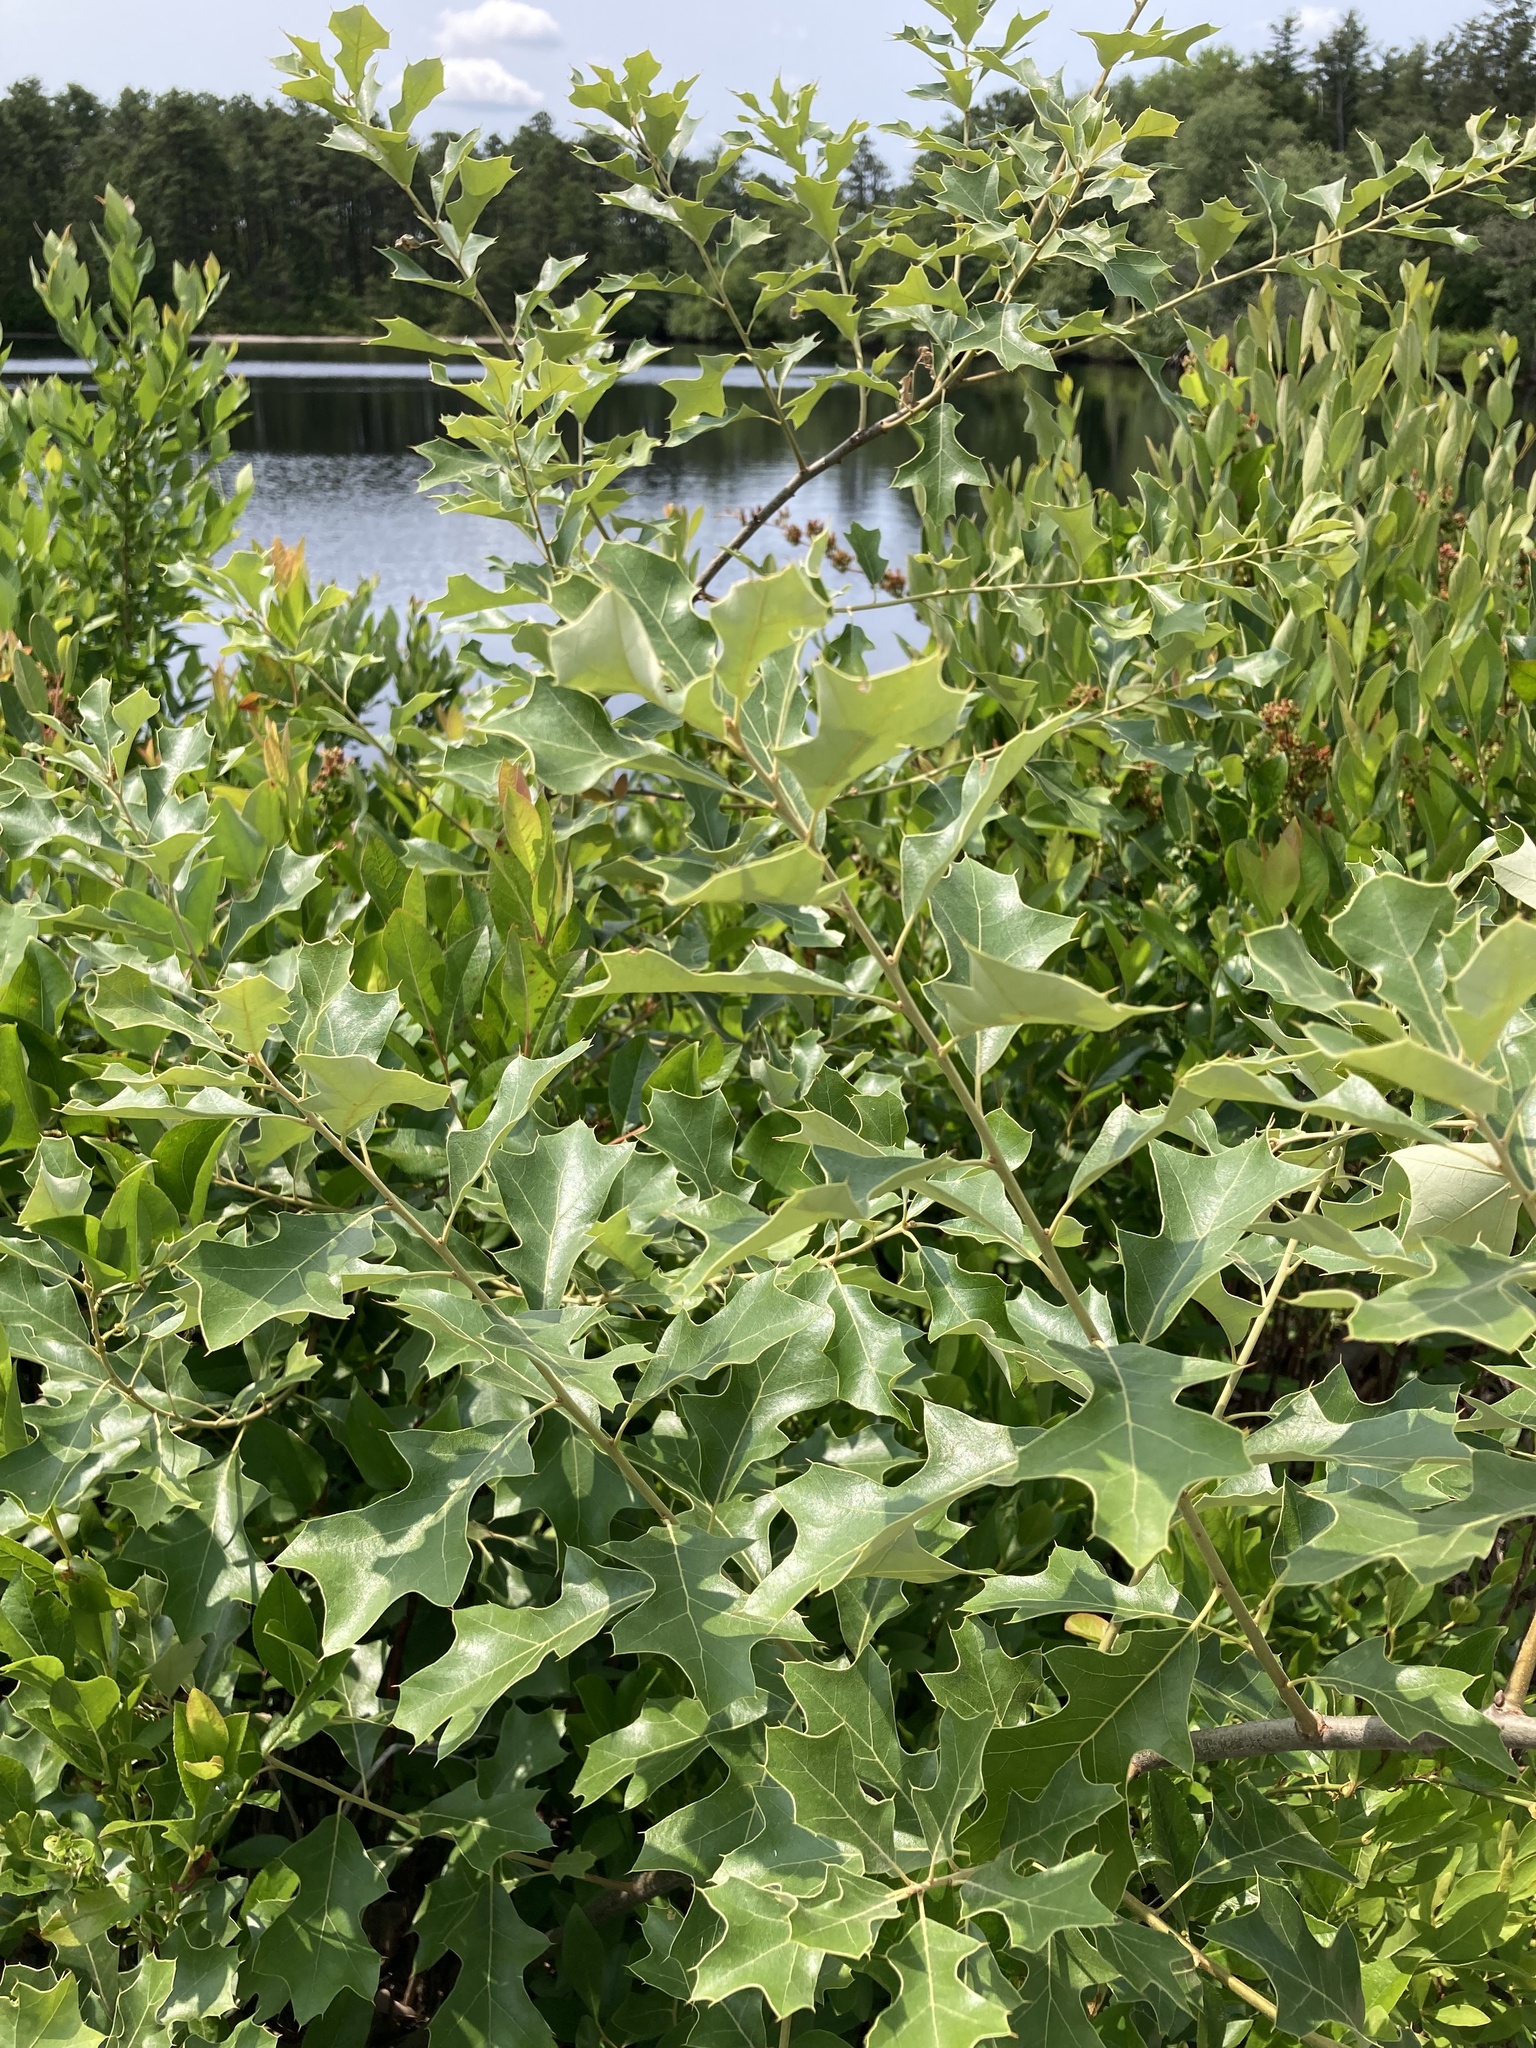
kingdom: Plantae
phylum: Tracheophyta
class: Magnoliopsida
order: Fagales
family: Fagaceae
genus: Quercus
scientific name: Quercus ilicifolia
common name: Bear oak
